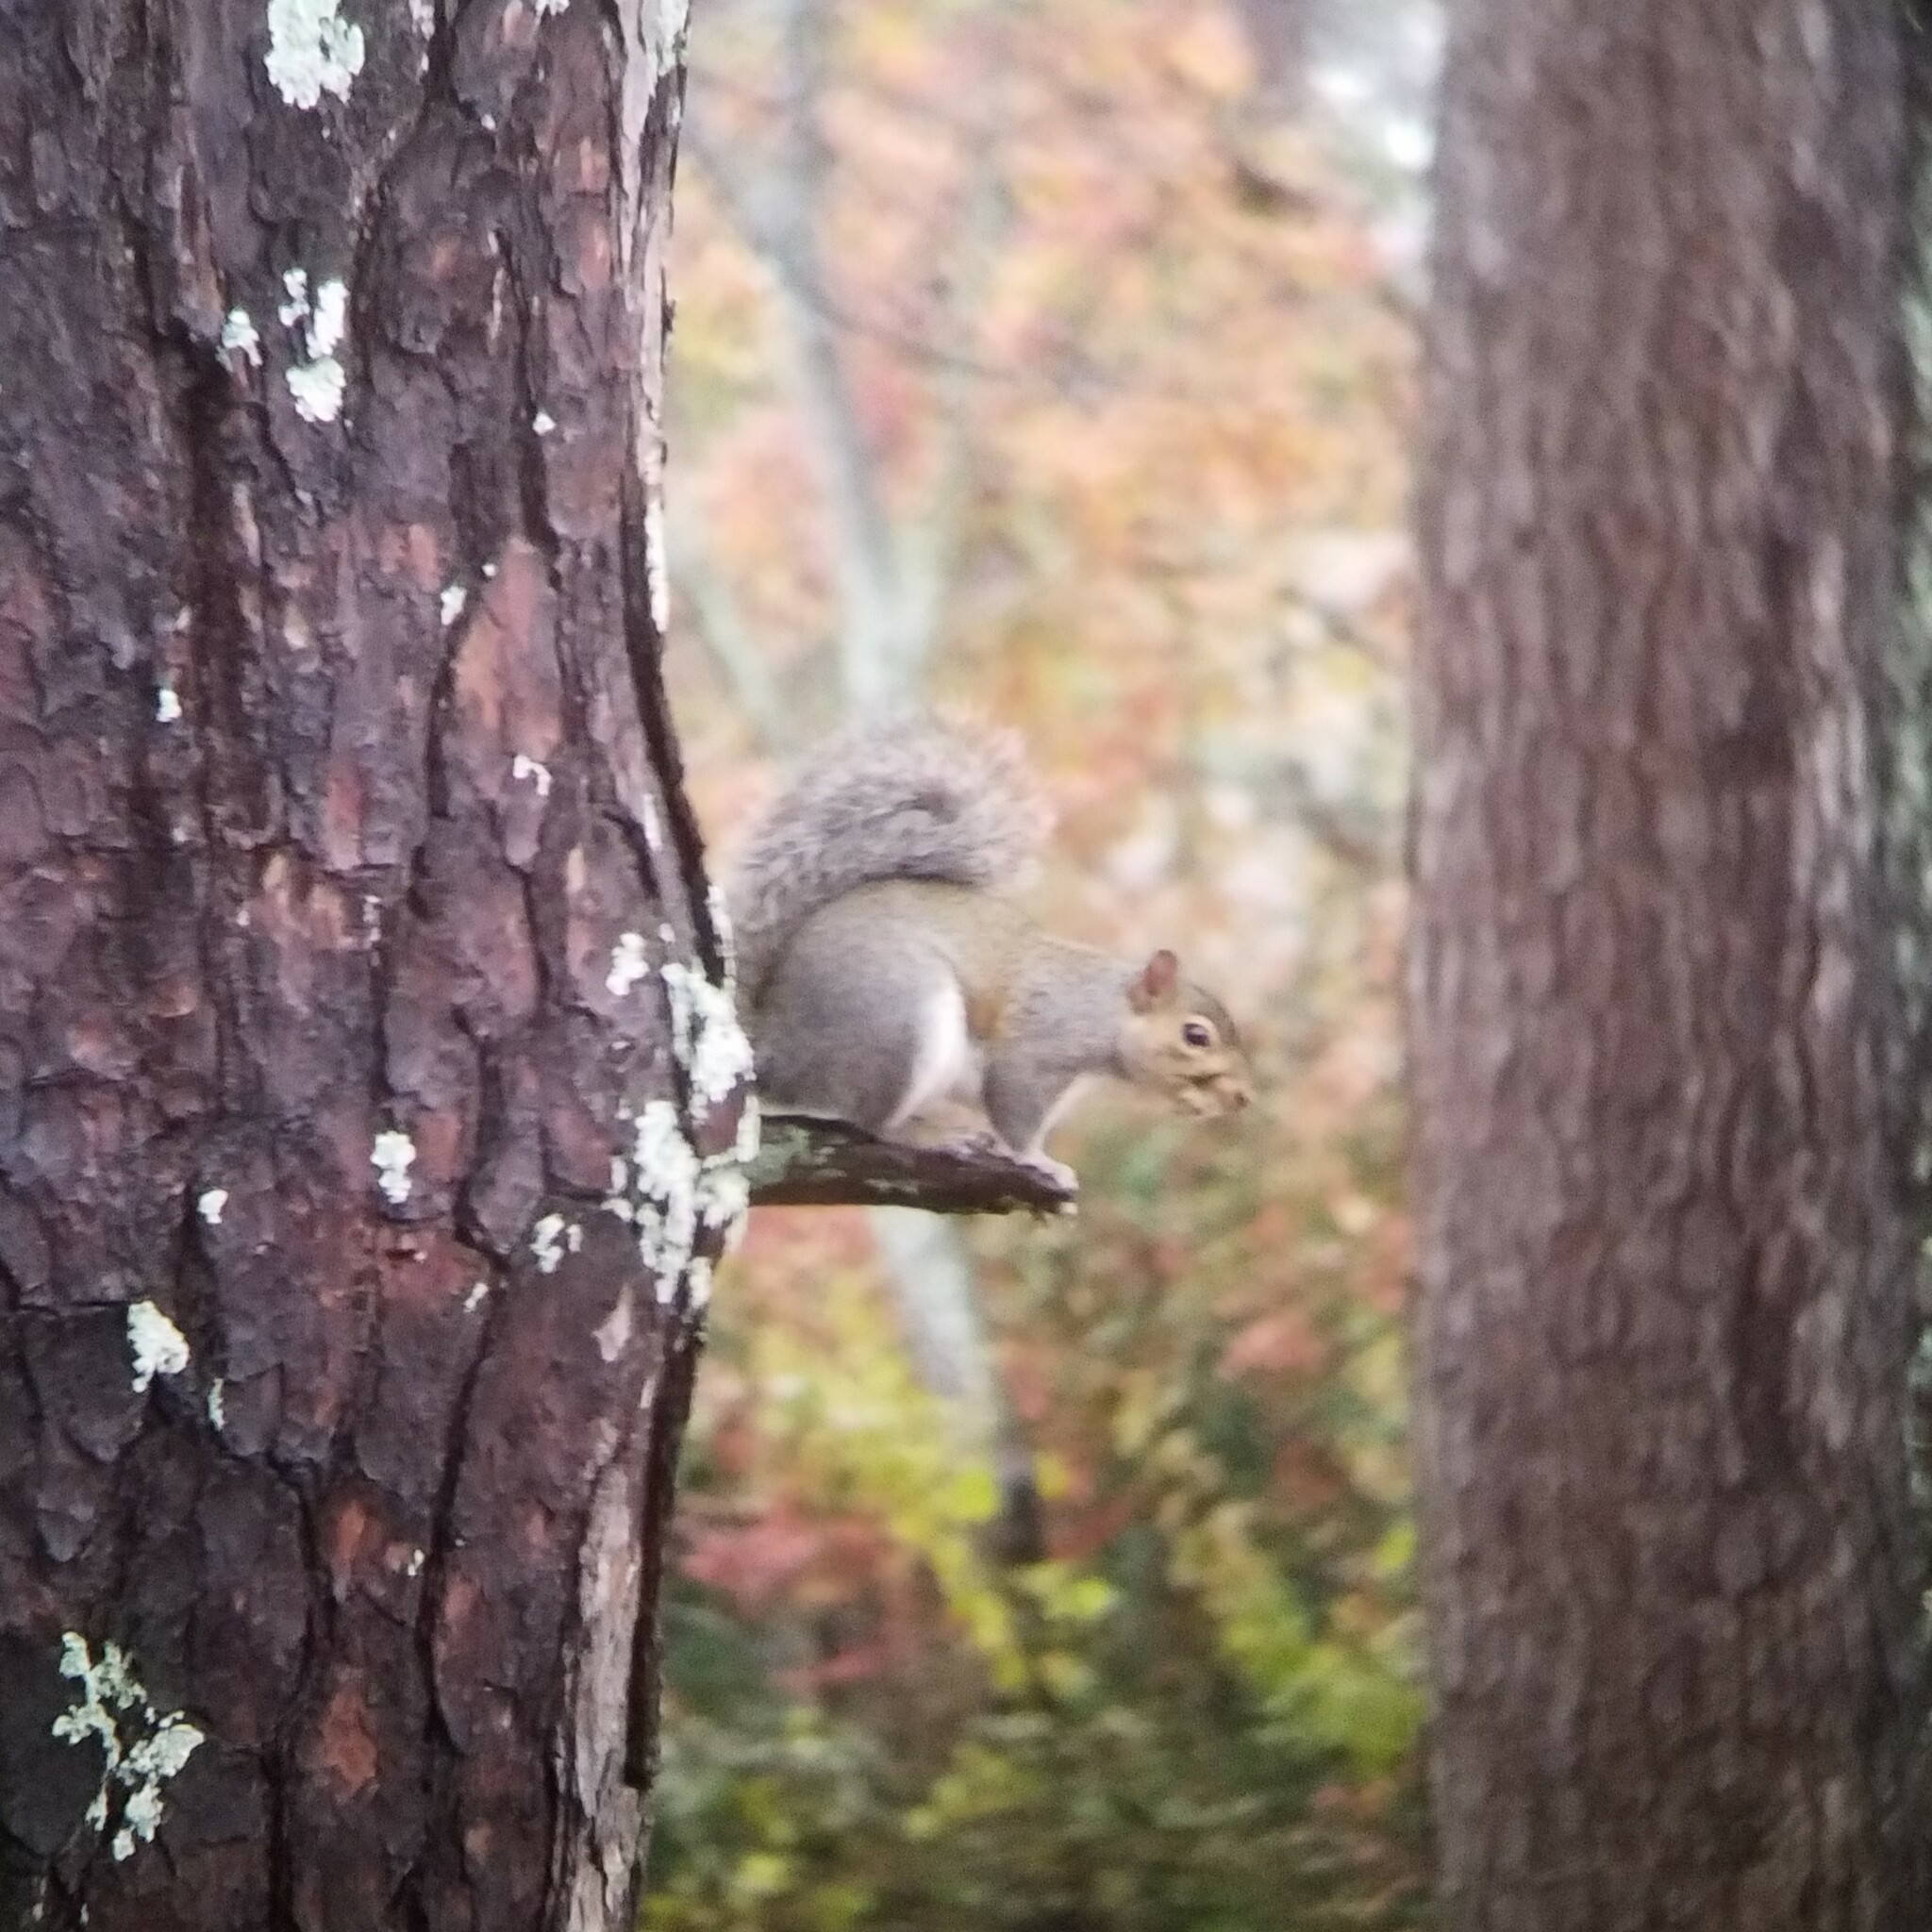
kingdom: Animalia
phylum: Chordata
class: Mammalia
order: Rodentia
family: Sciuridae
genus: Sciurus
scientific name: Sciurus carolinensis
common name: Eastern gray squirrel
